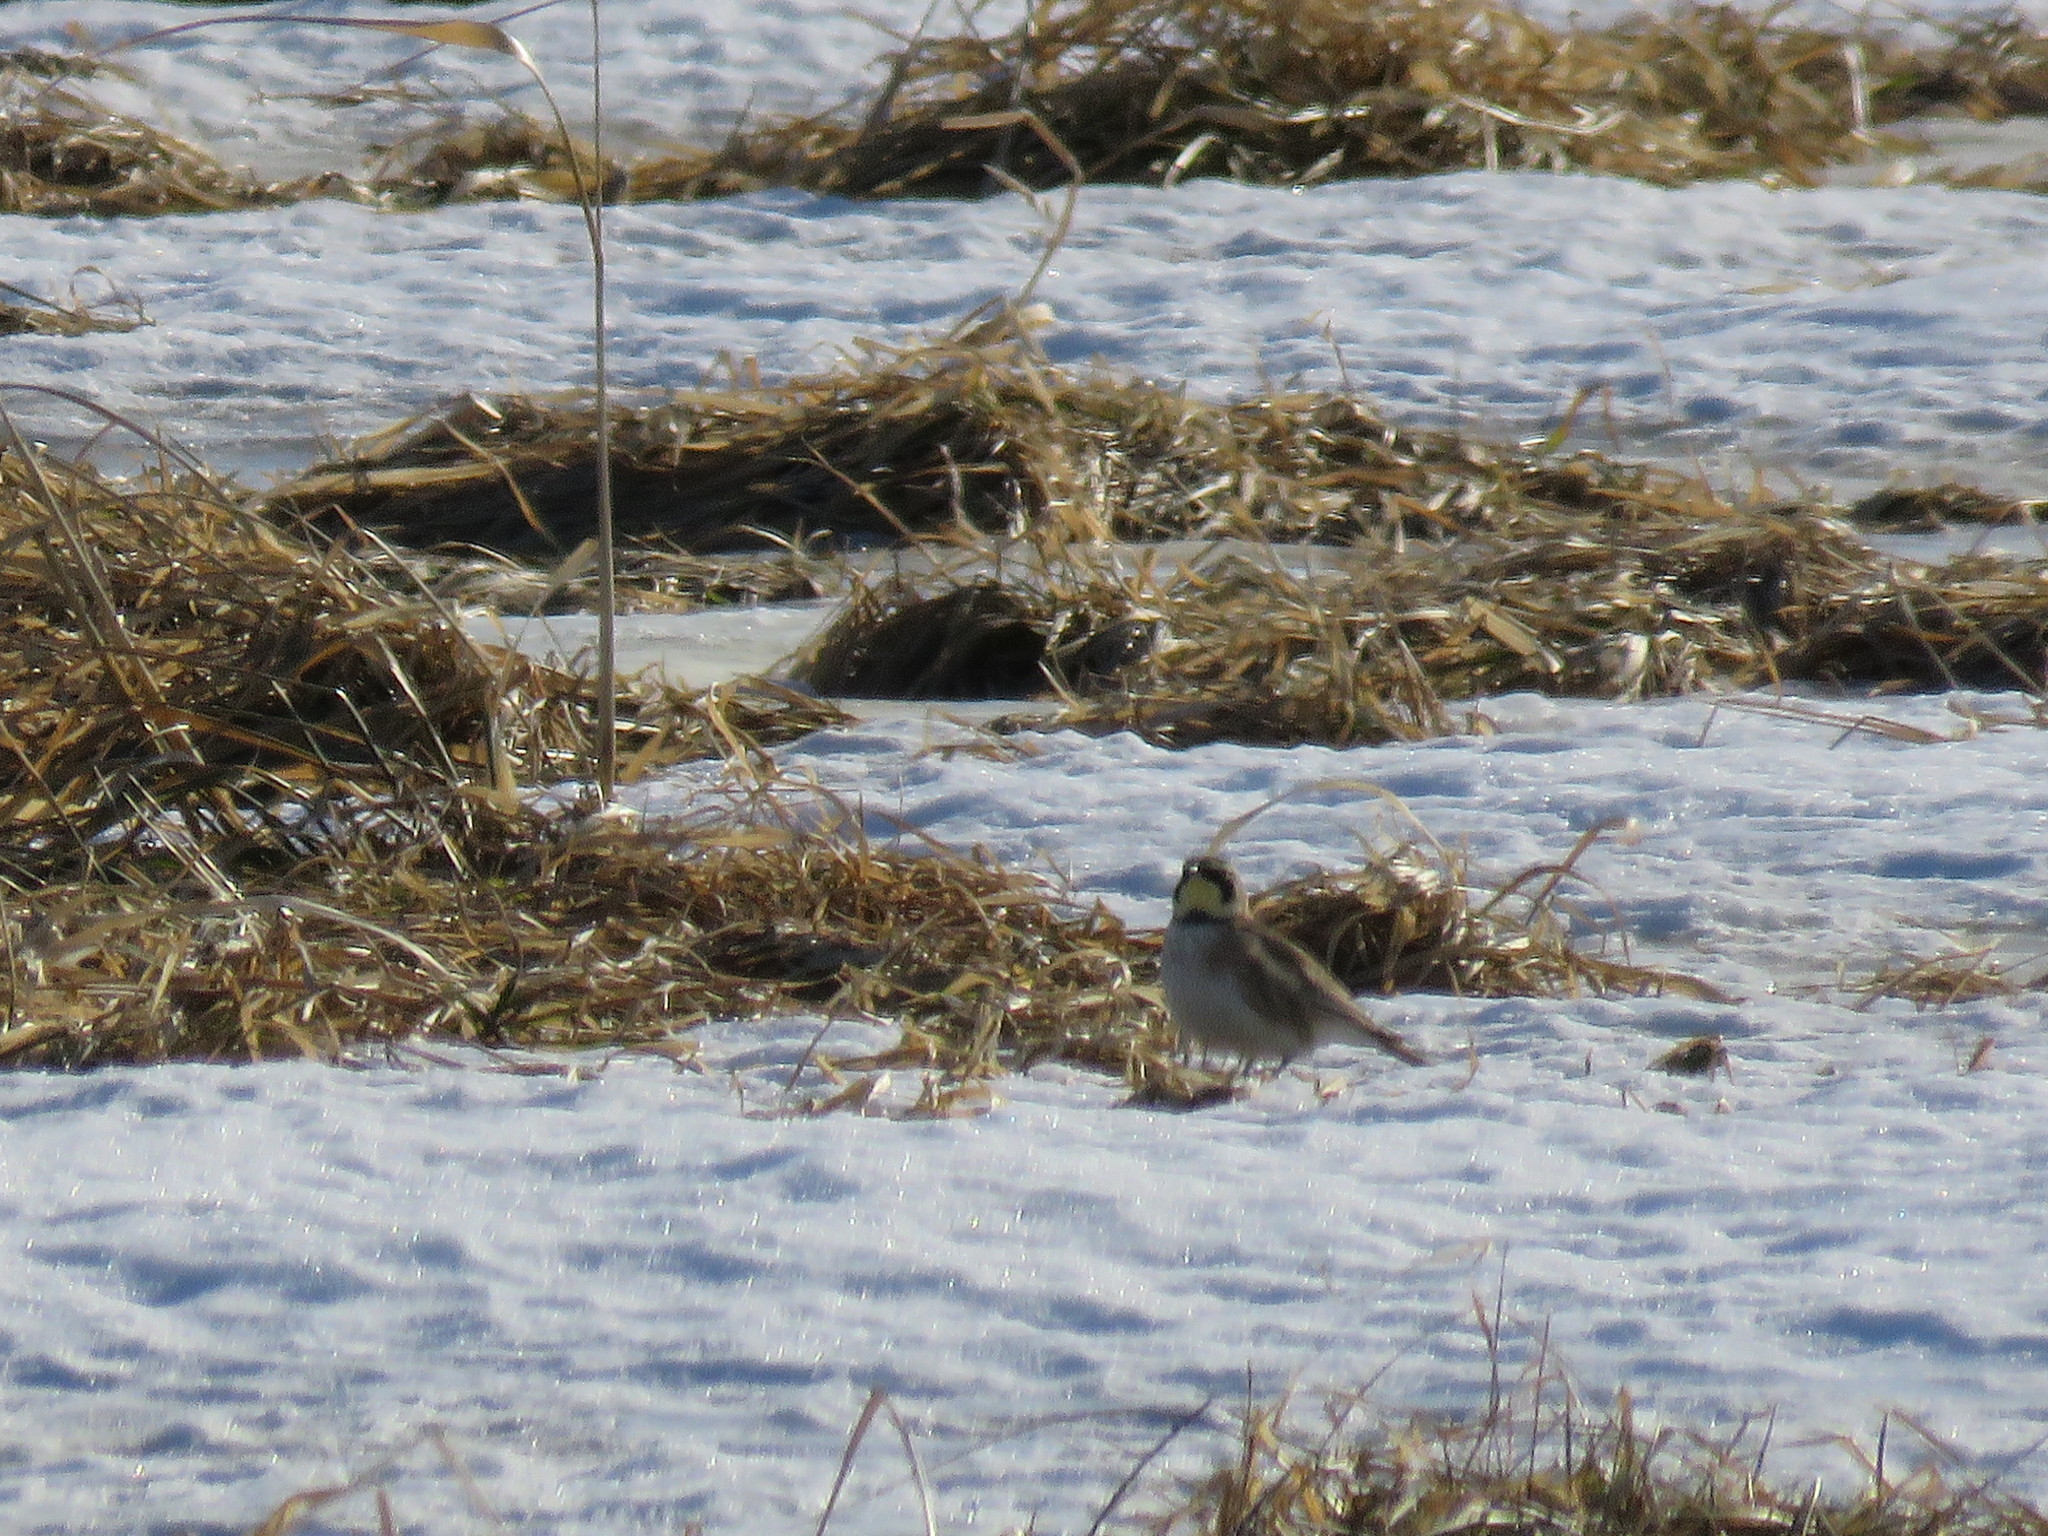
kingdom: Animalia
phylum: Chordata
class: Aves
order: Passeriformes
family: Alaudidae
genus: Eremophila
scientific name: Eremophila alpestris
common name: Horned lark
